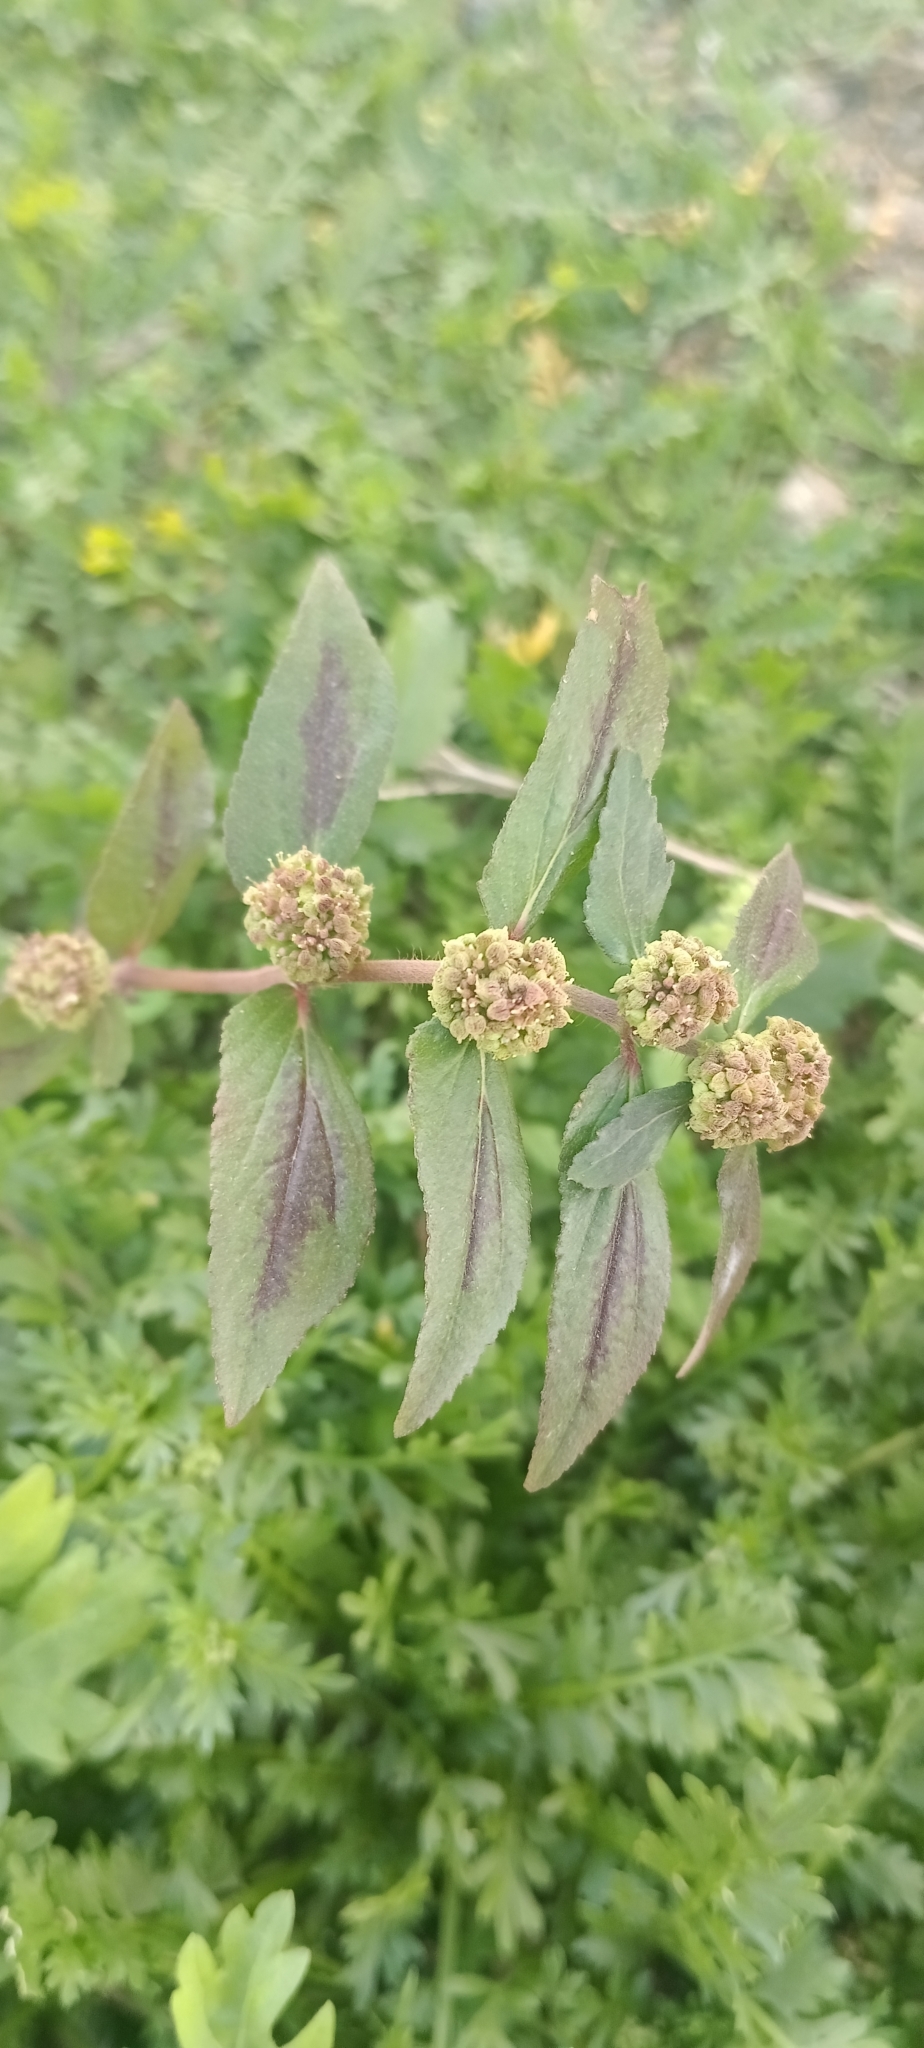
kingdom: Plantae
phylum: Tracheophyta
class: Magnoliopsida
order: Malpighiales
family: Euphorbiaceae
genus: Euphorbia
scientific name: Euphorbia hirta
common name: Pillpod sandmat
